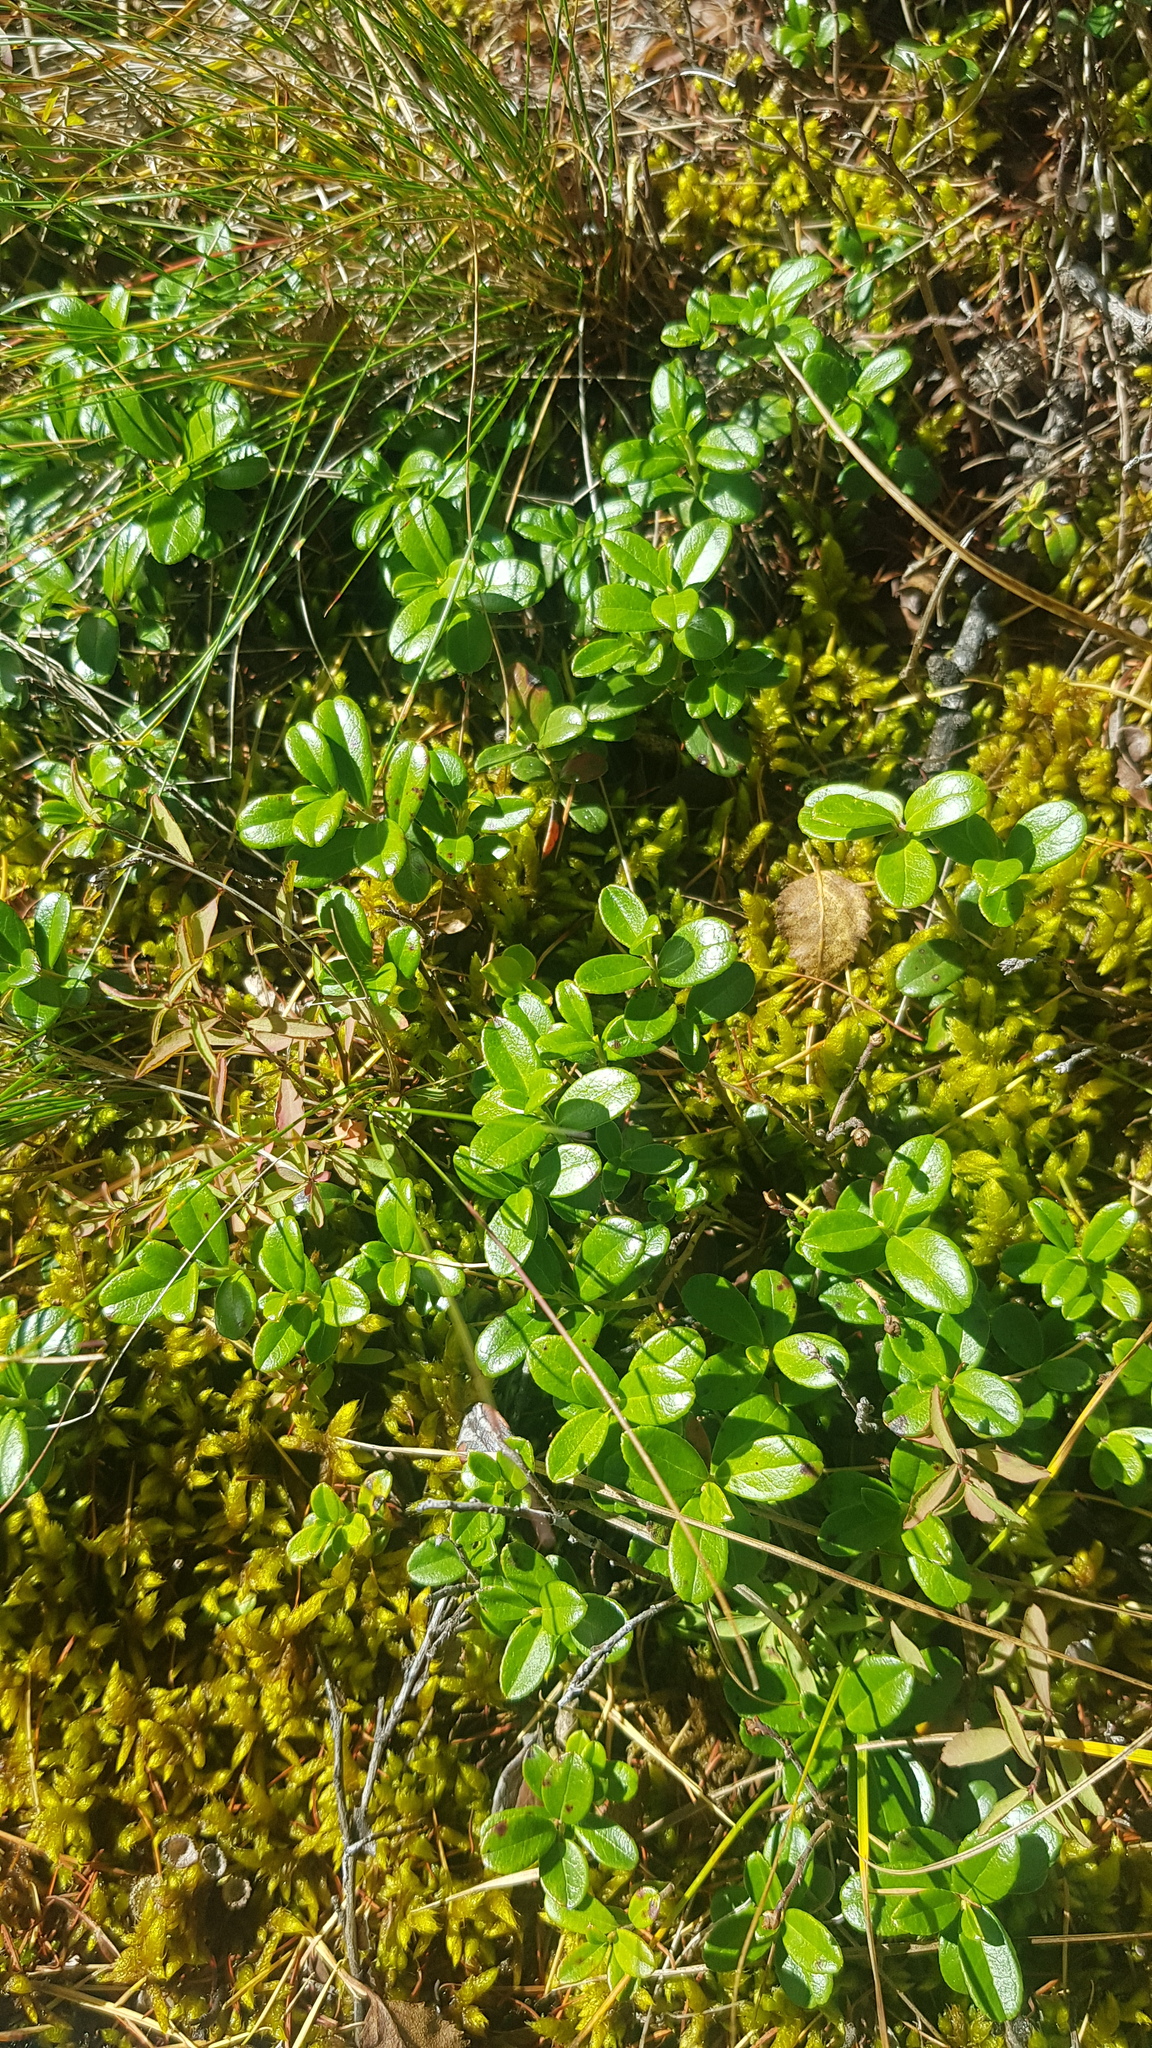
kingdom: Plantae
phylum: Tracheophyta
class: Magnoliopsida
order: Ericales
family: Ericaceae
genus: Vaccinium
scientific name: Vaccinium vitis-idaea
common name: Cowberry
